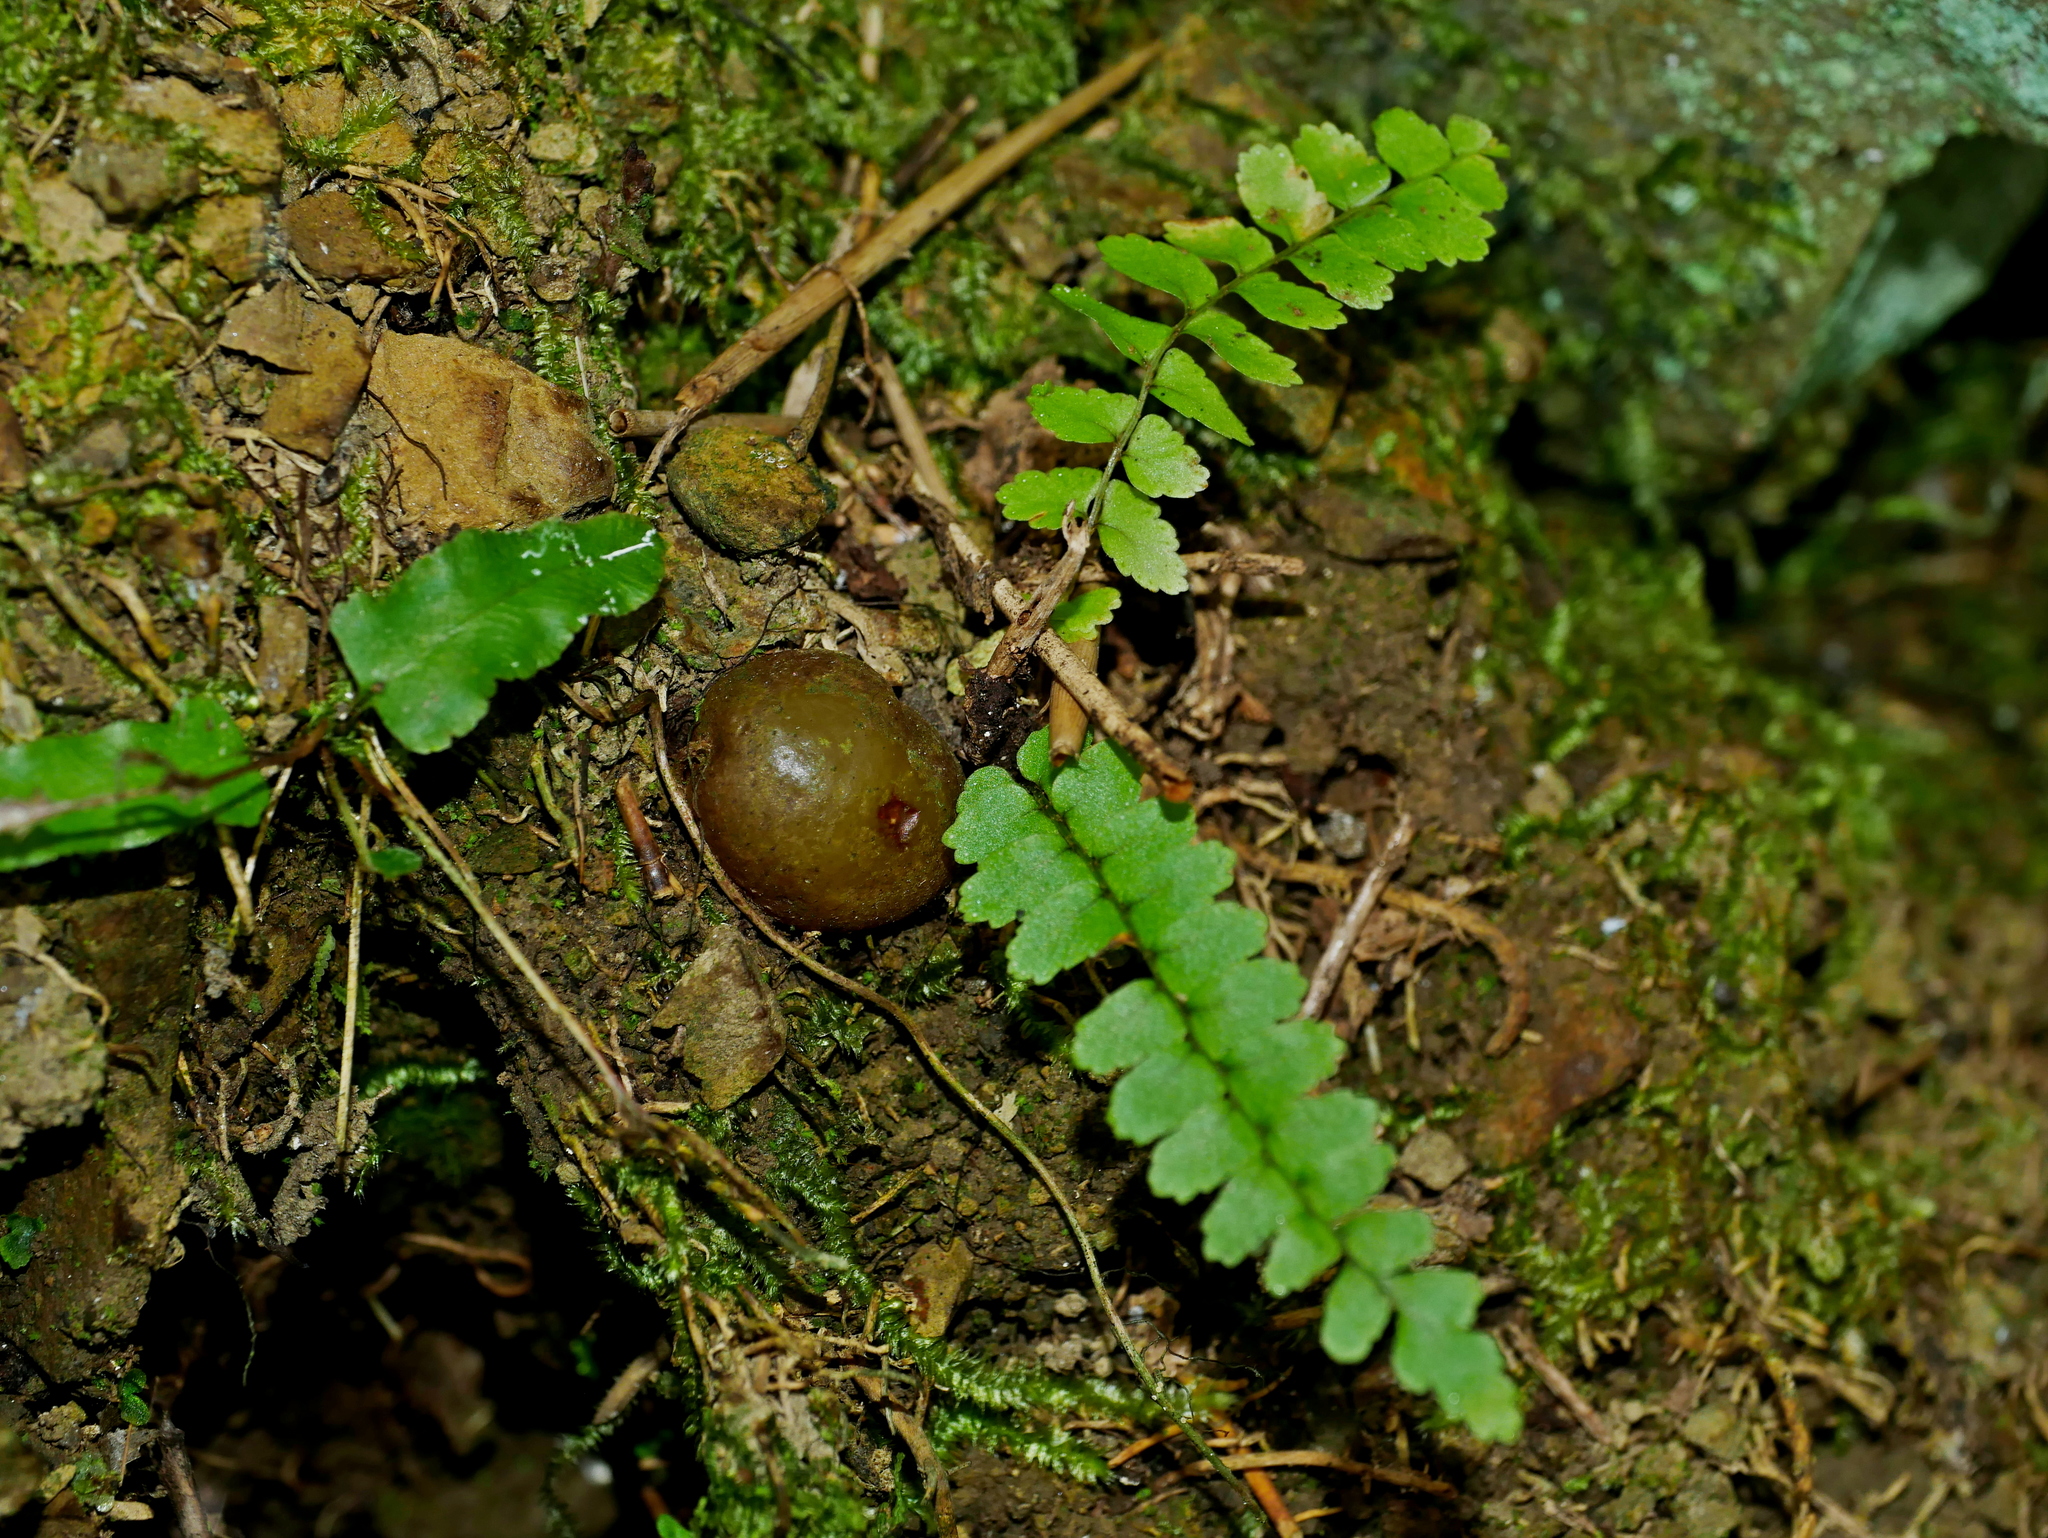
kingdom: Plantae
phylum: Tracheophyta
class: Polypodiopsida
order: Polypodiales
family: Nephrolepidaceae
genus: Nephrolepis
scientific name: Nephrolepis cordifolia
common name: Narrow swordfern
